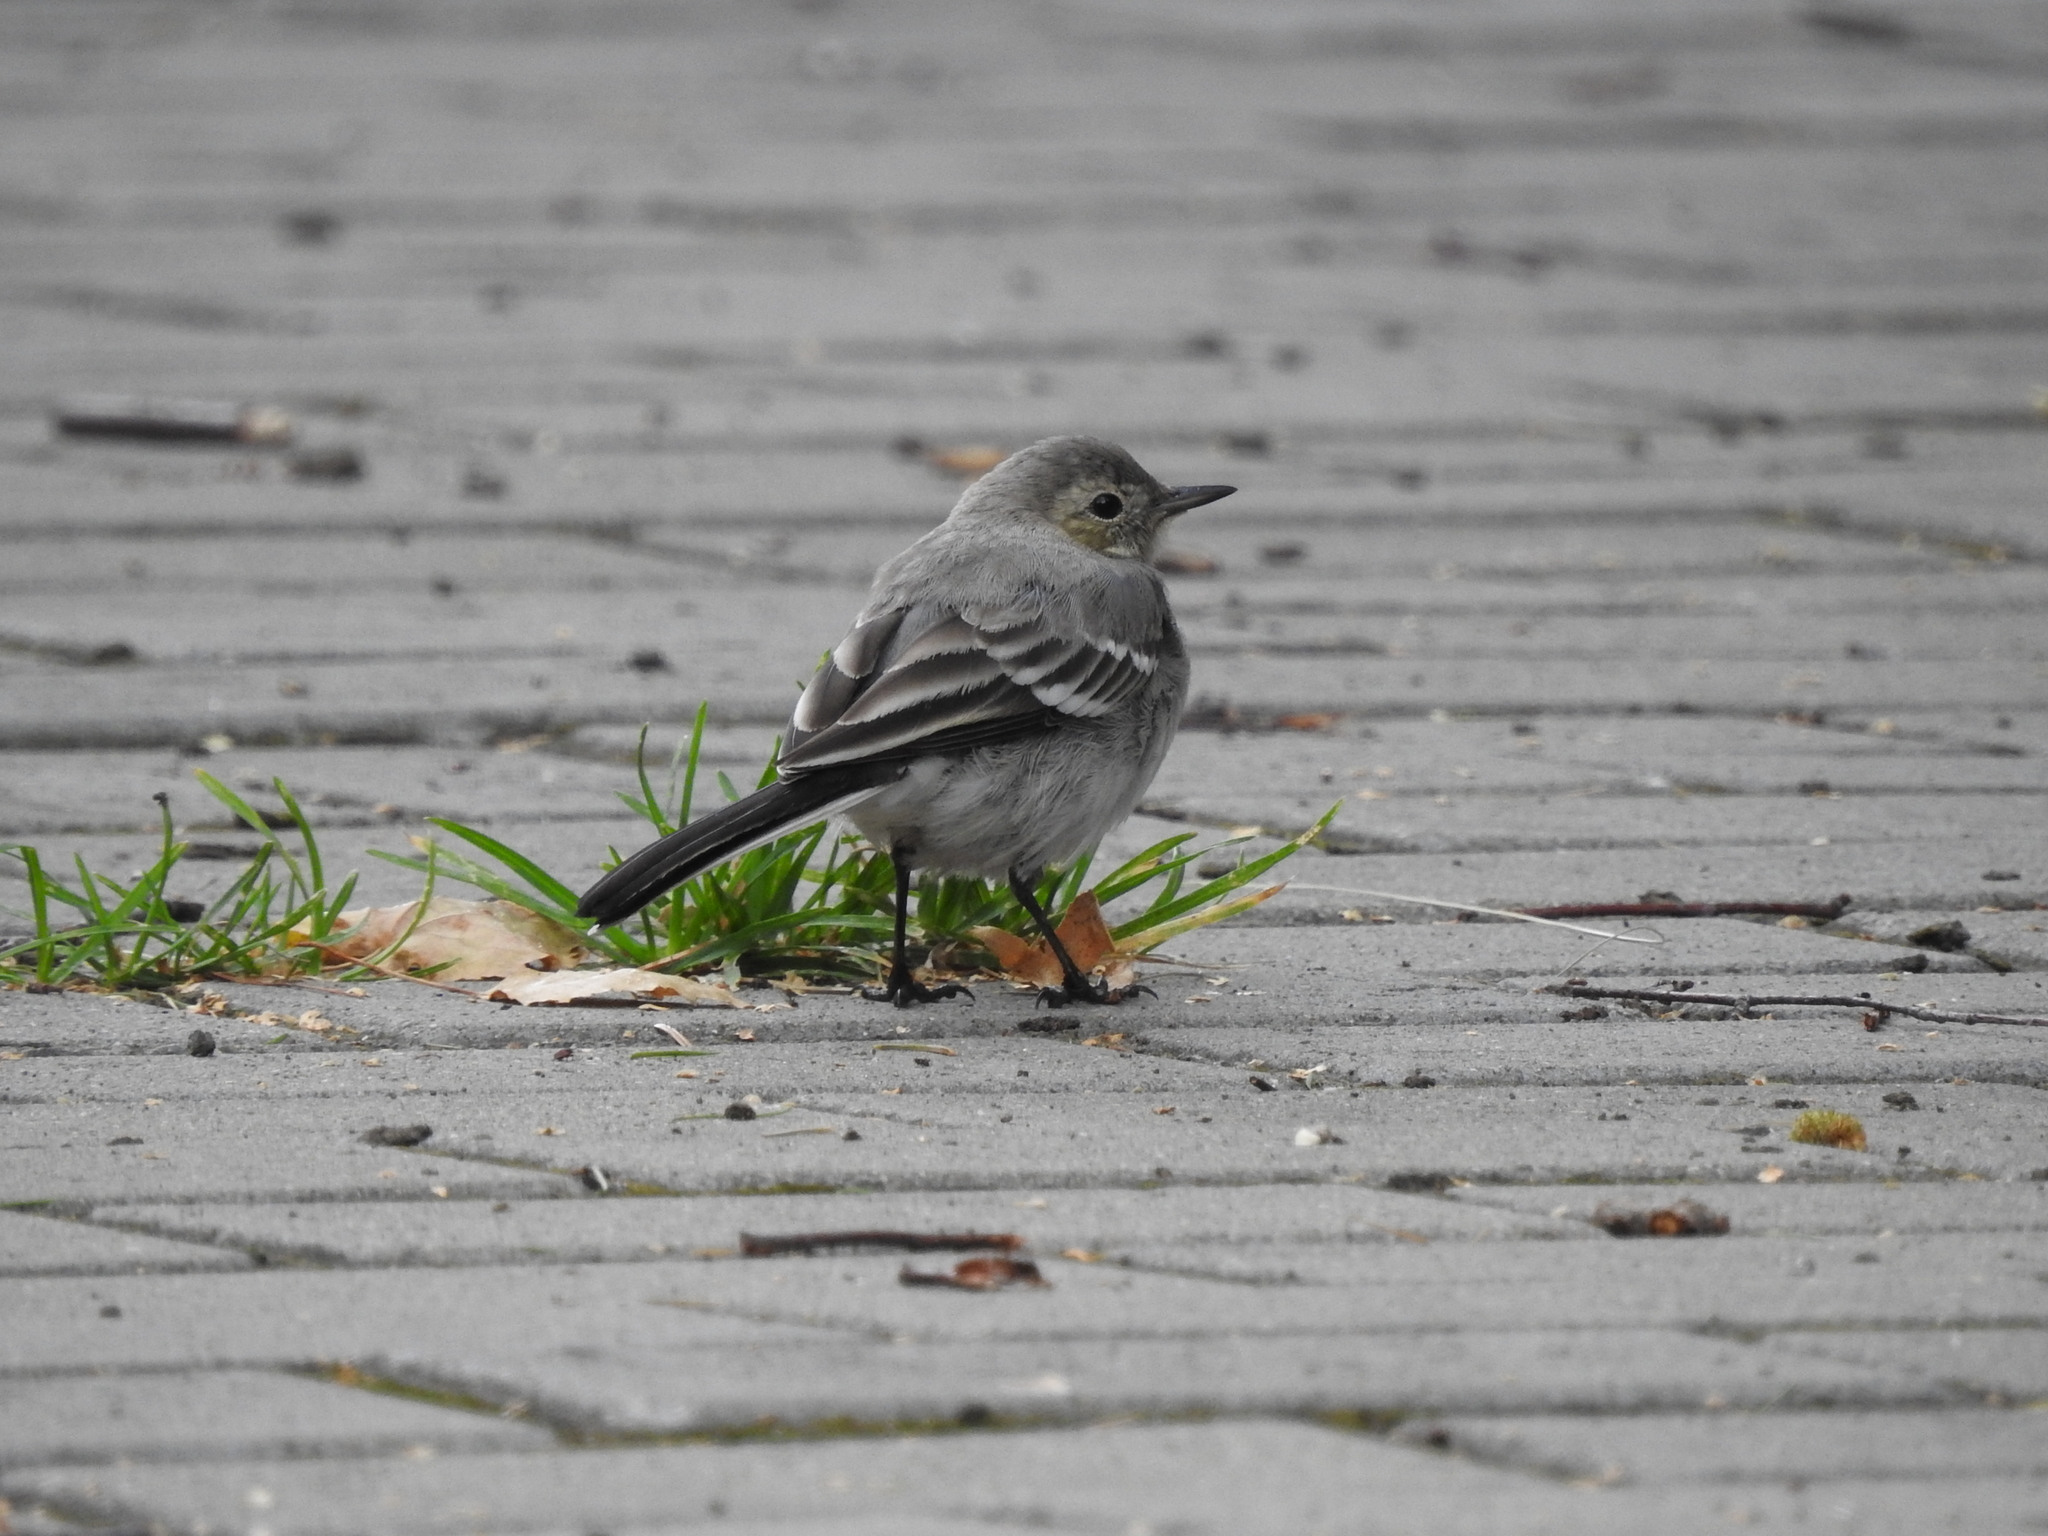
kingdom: Animalia
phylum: Chordata
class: Aves
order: Passeriformes
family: Motacillidae
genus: Motacilla
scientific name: Motacilla alba
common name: White wagtail
